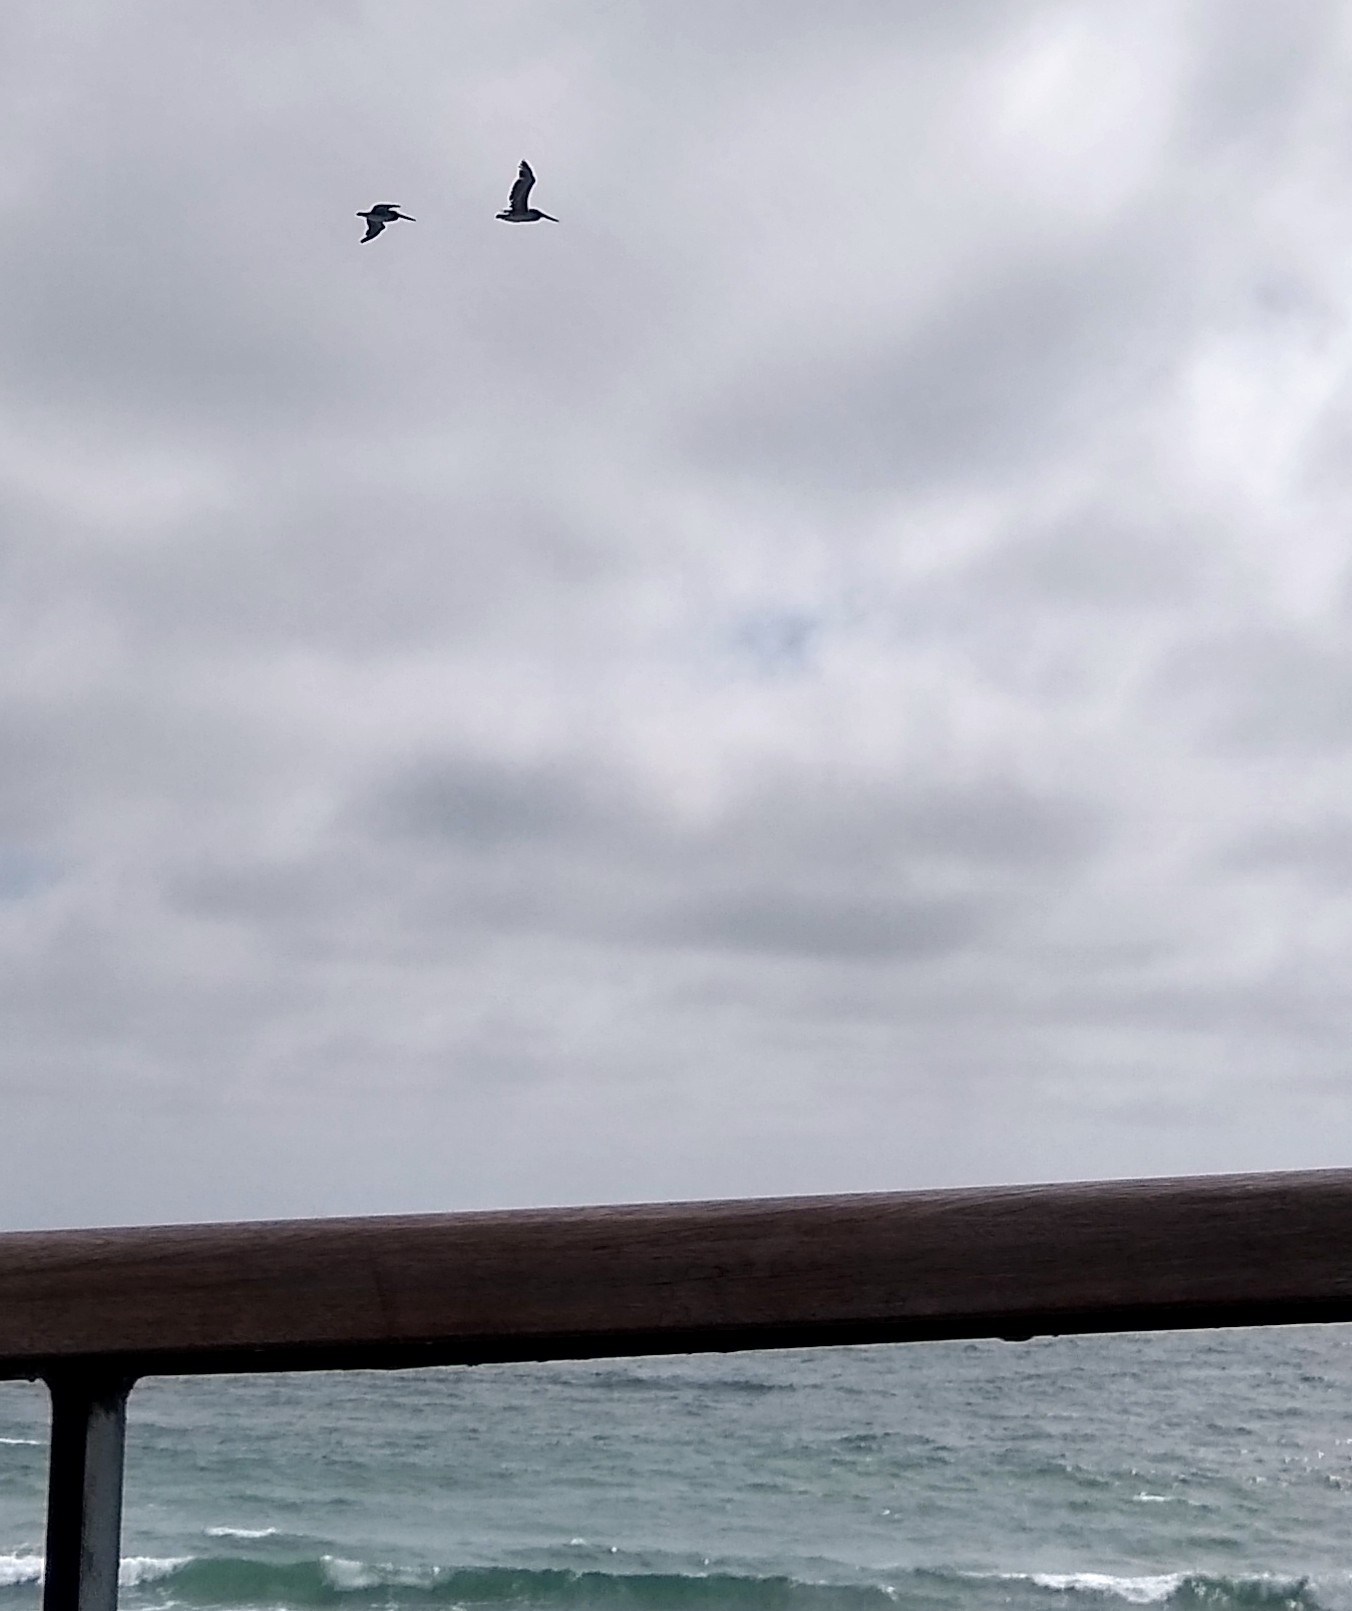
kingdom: Animalia
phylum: Chordata
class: Aves
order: Pelecaniformes
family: Pelecanidae
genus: Pelecanus
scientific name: Pelecanus occidentalis
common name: Brown pelican
